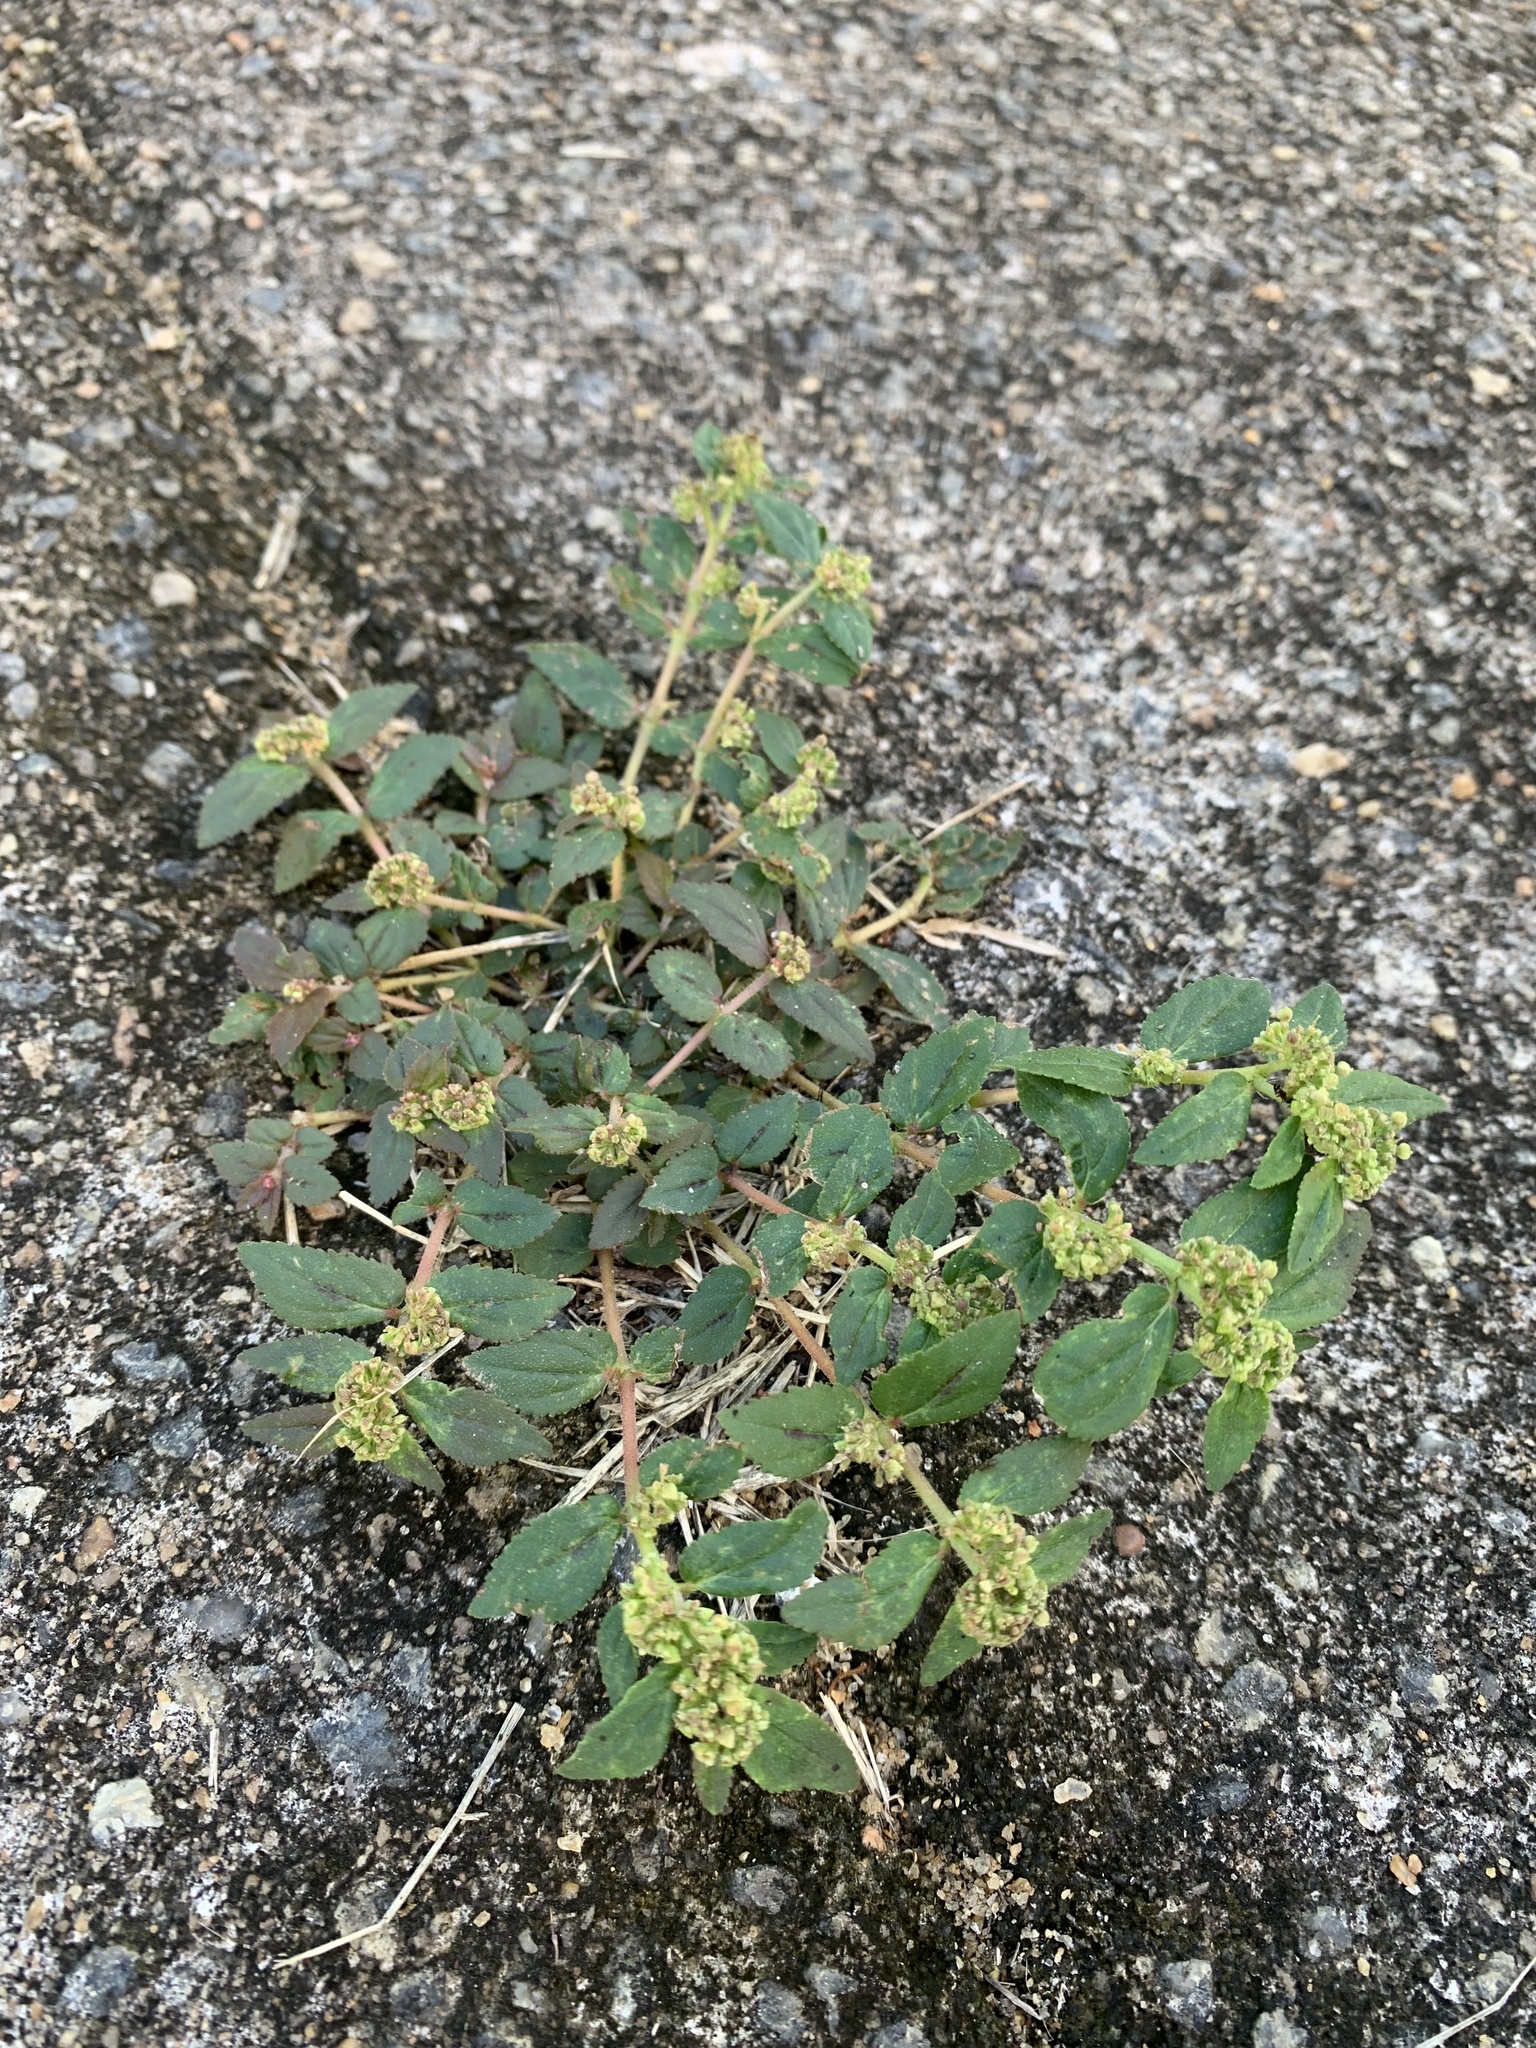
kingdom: Plantae
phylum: Tracheophyta
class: Magnoliopsida
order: Malpighiales
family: Euphorbiaceae
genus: Euphorbia
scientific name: Euphorbia hirta
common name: Pillpod sandmat
